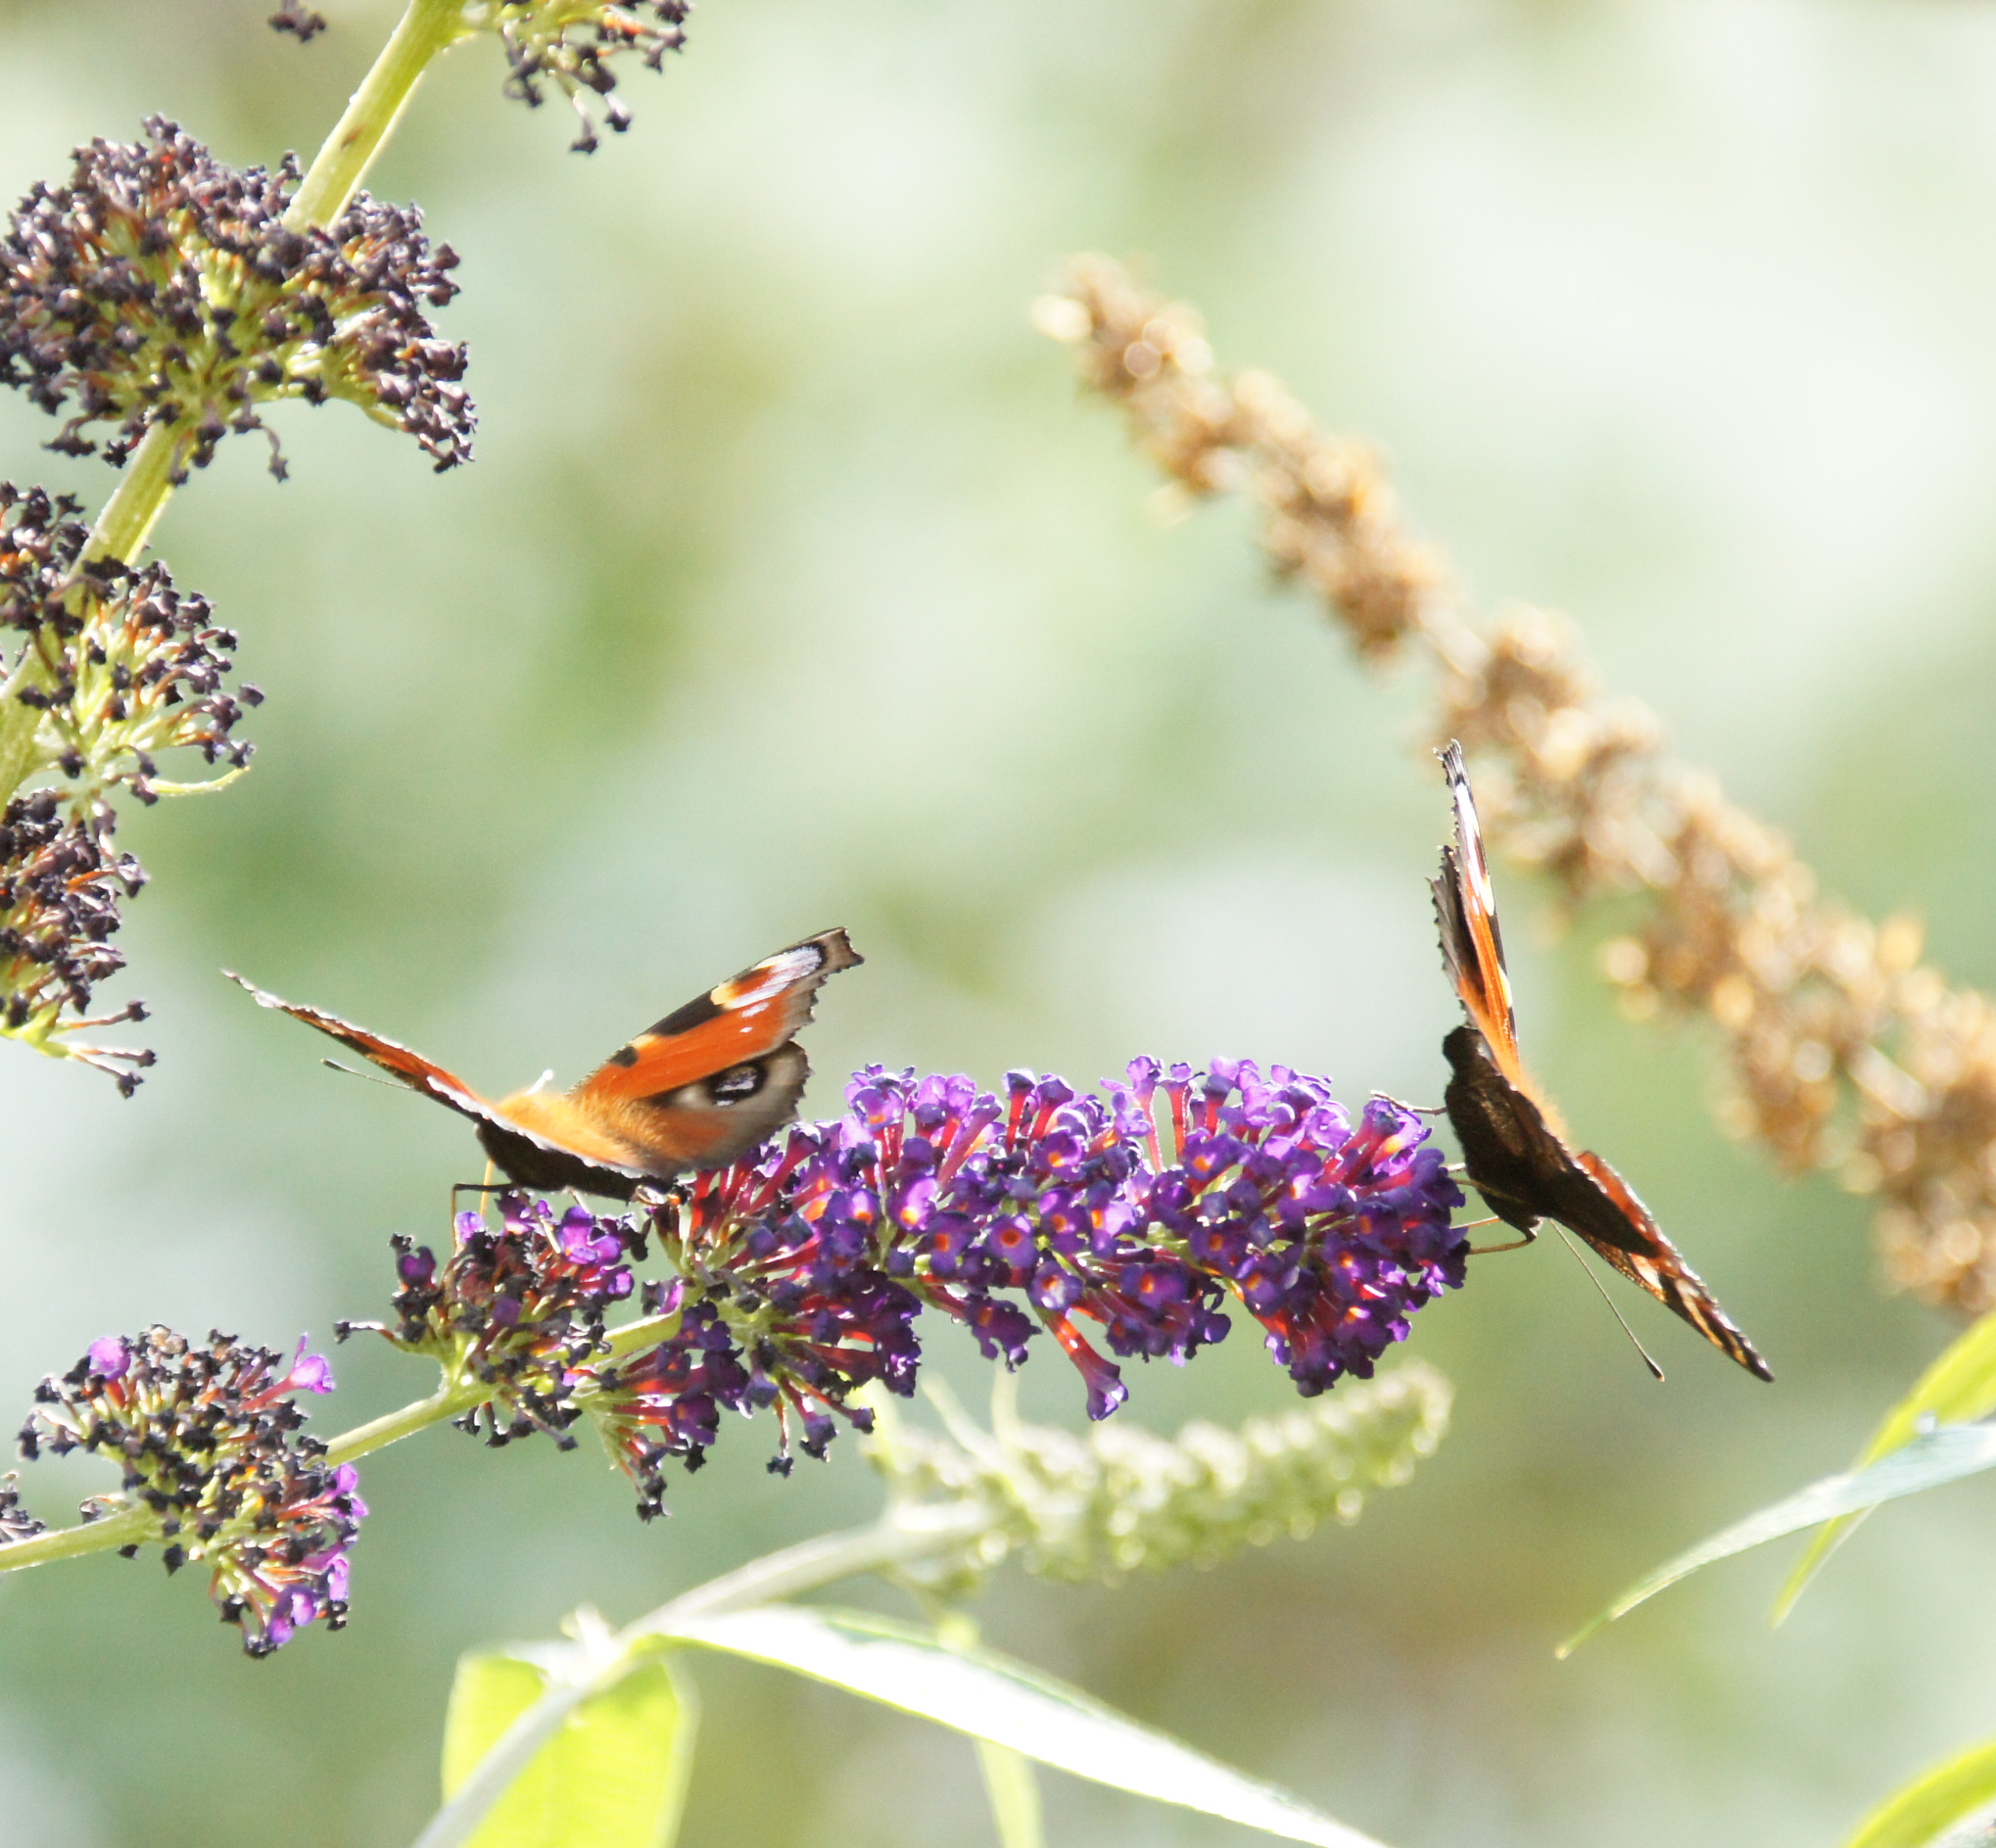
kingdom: Animalia
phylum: Arthropoda
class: Insecta
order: Lepidoptera
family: Nymphalidae
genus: Aglais
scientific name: Aglais io
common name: Peacock
